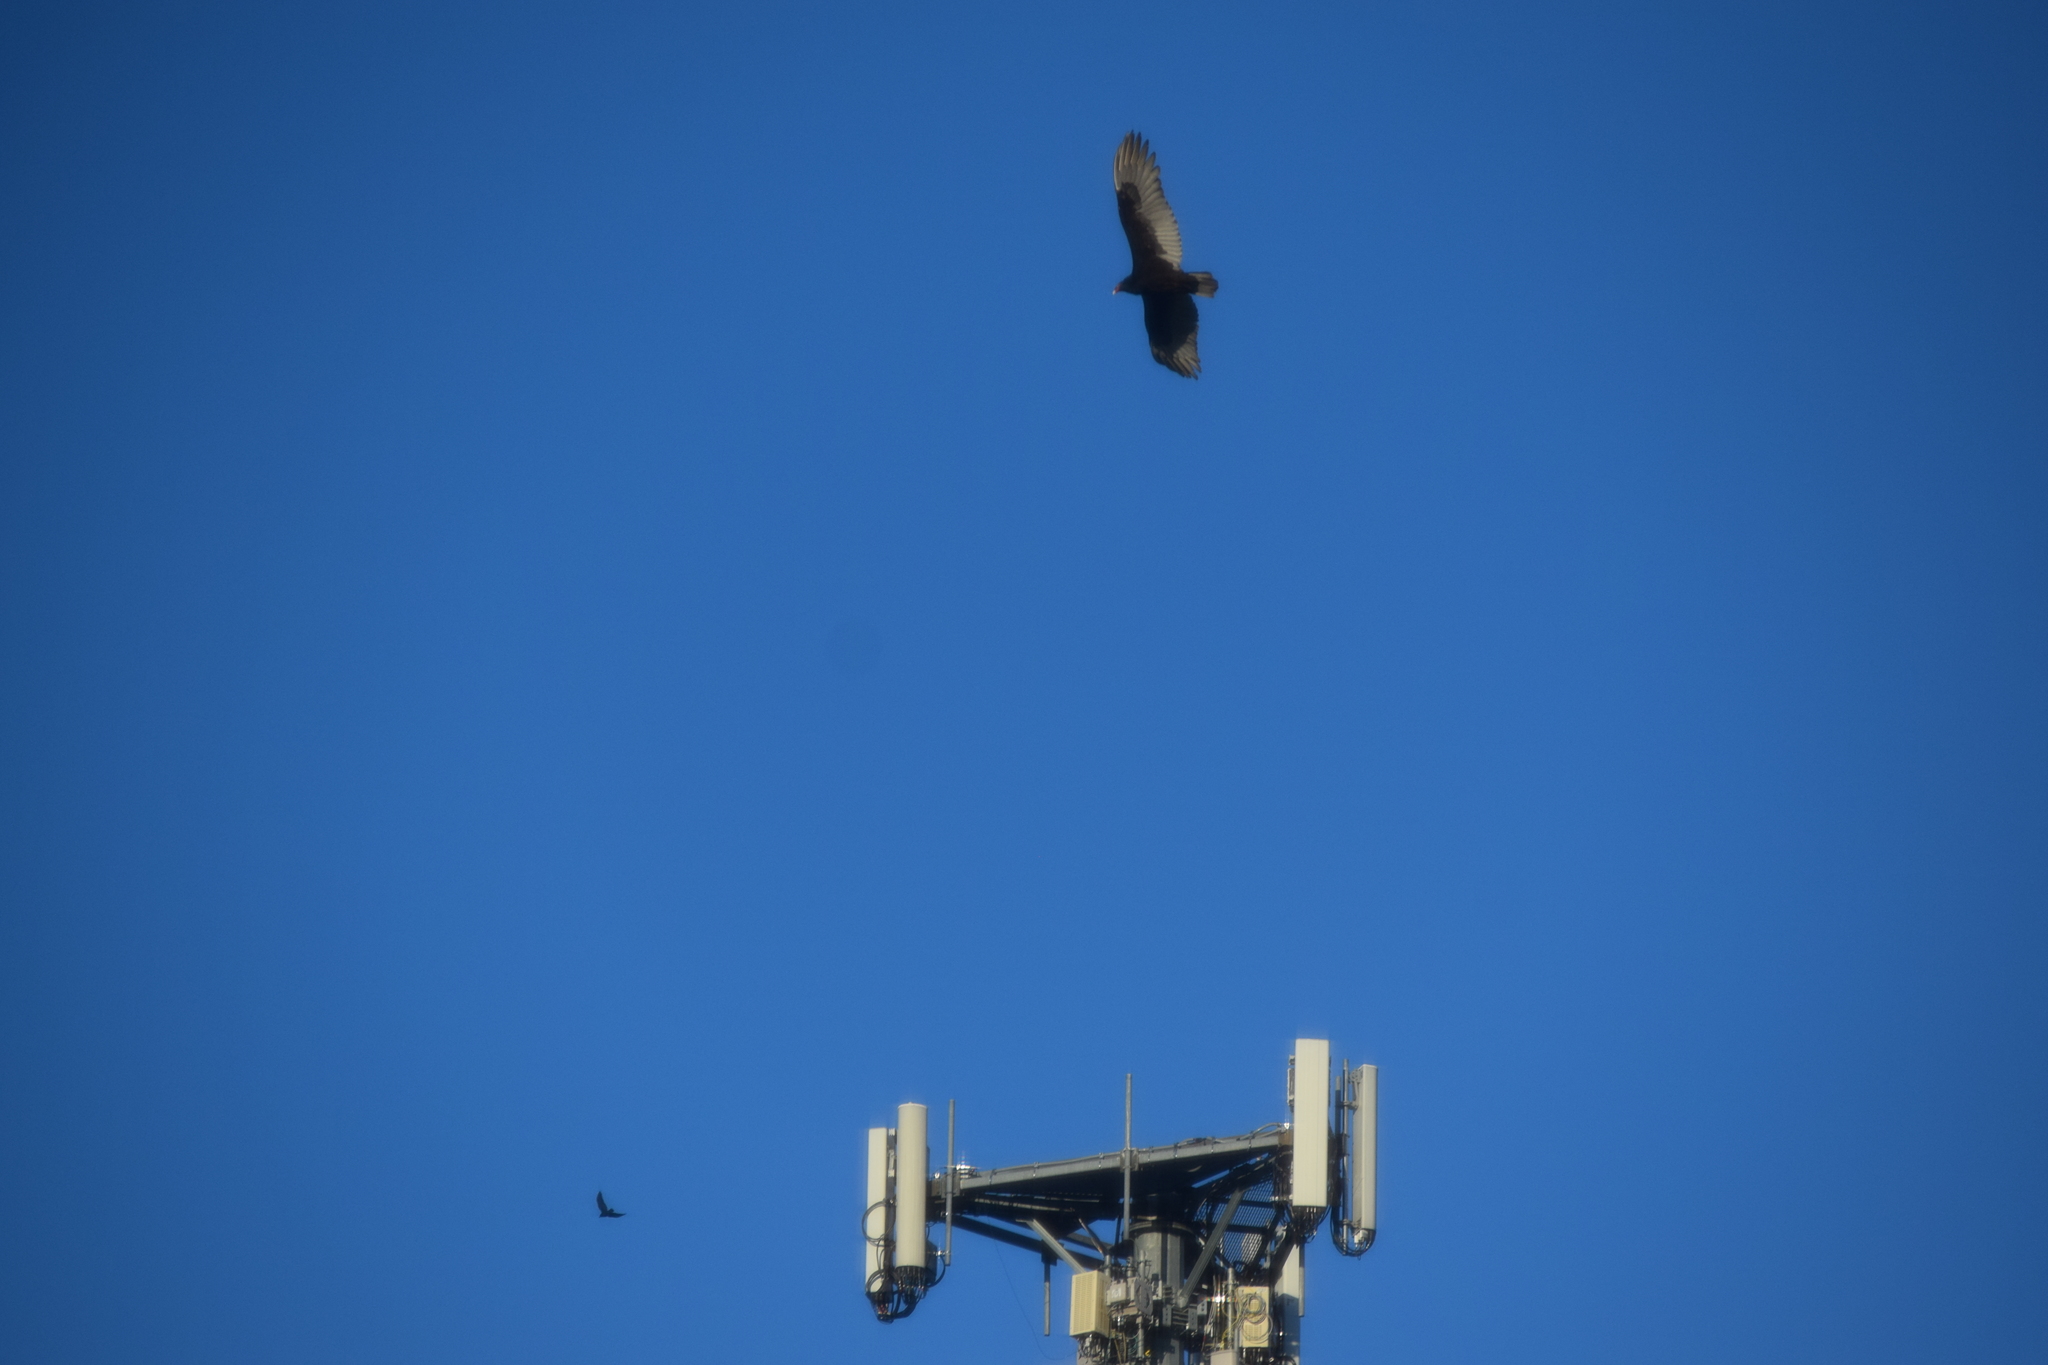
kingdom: Animalia
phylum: Chordata
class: Aves
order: Accipitriformes
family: Cathartidae
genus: Cathartes
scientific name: Cathartes aura
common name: Turkey vulture
